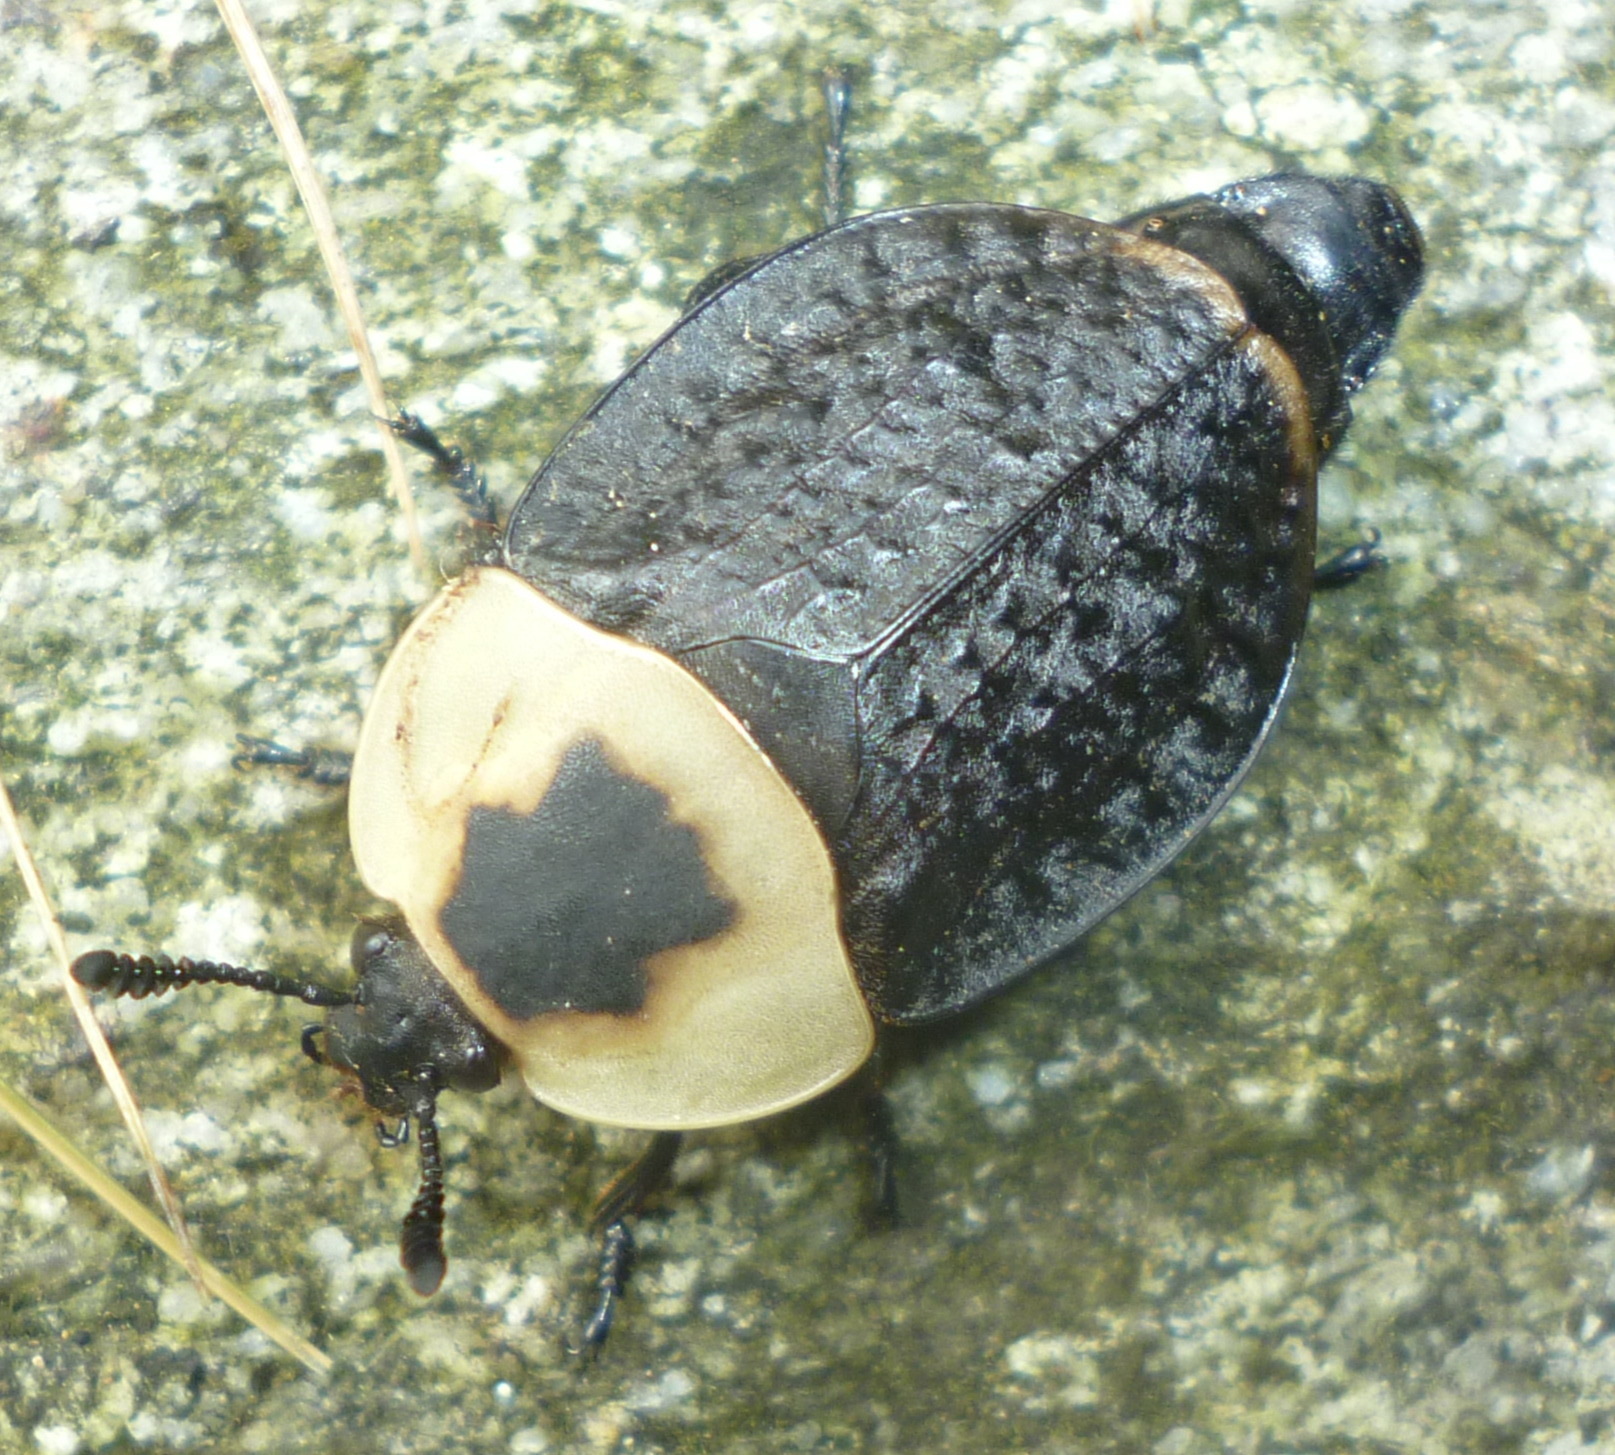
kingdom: Animalia
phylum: Arthropoda
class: Insecta
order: Coleoptera
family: Staphylinidae
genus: Necrophila
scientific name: Necrophila americana
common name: American carrion beetle
